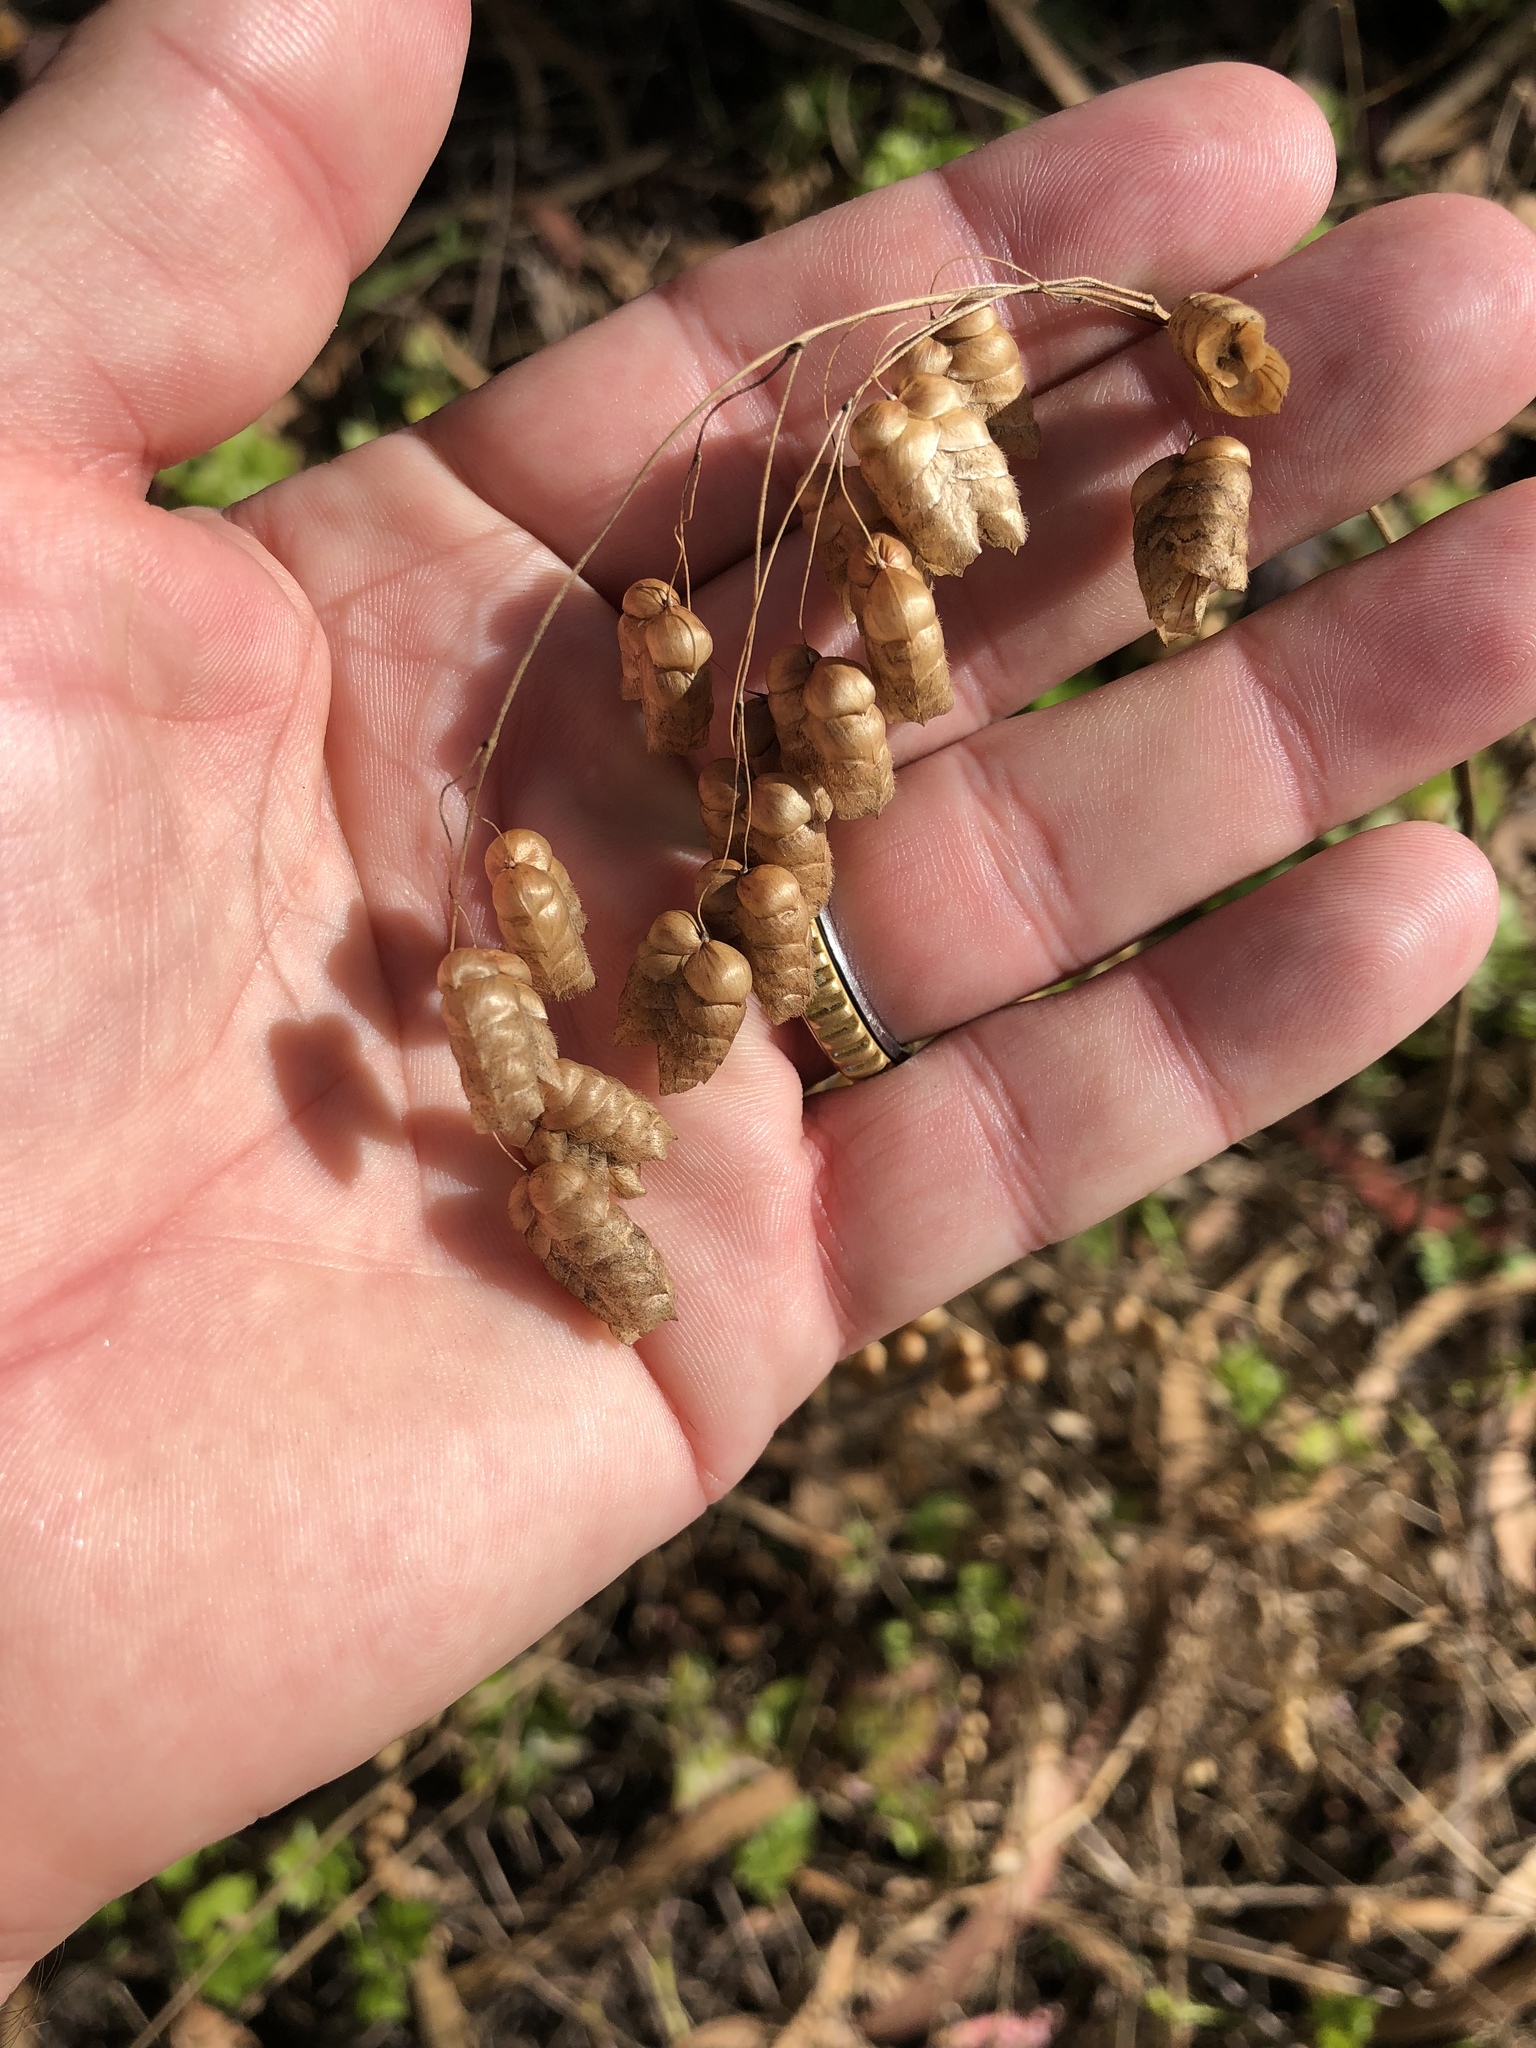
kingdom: Plantae
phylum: Tracheophyta
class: Liliopsida
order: Poales
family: Poaceae
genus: Briza
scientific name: Briza maxima
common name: Big quakinggrass
